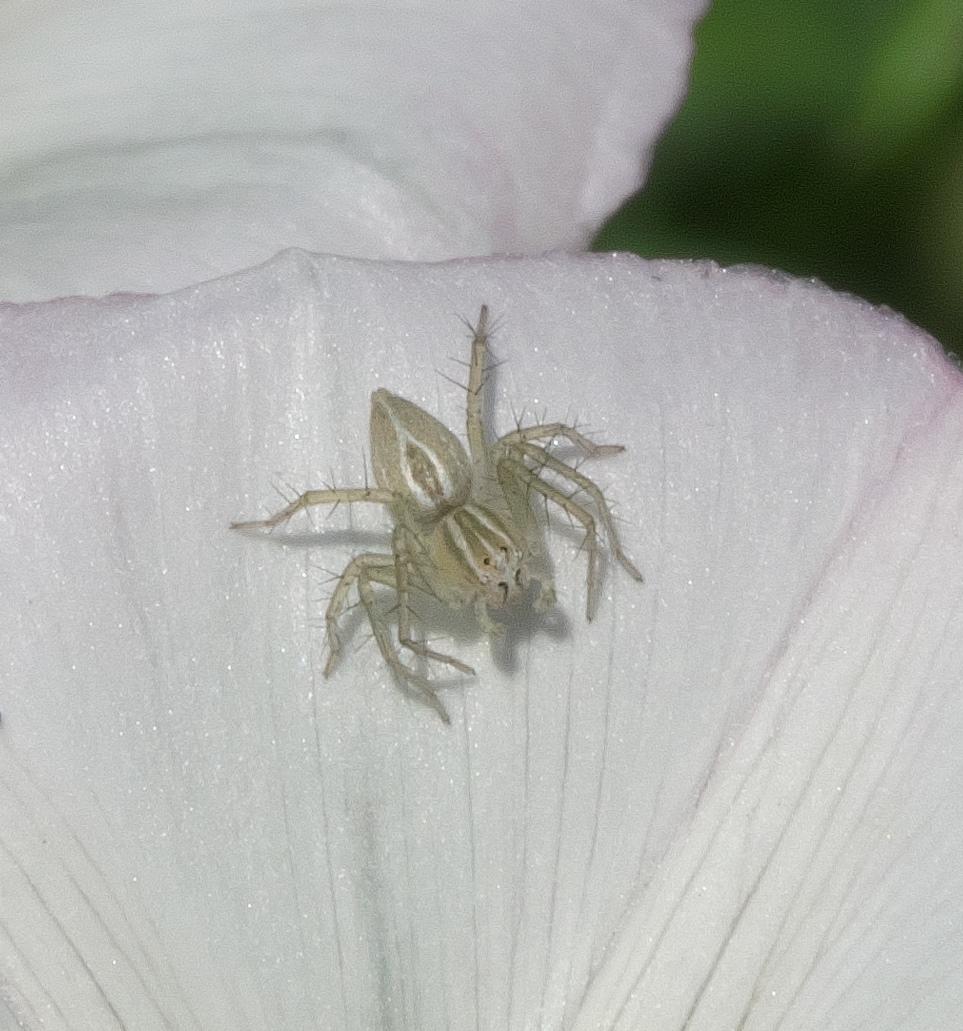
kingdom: Animalia
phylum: Arthropoda
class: Arachnida
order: Araneae
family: Oxyopidae
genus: Oxyopes
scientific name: Oxyopes salticus
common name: Lynx spiders
